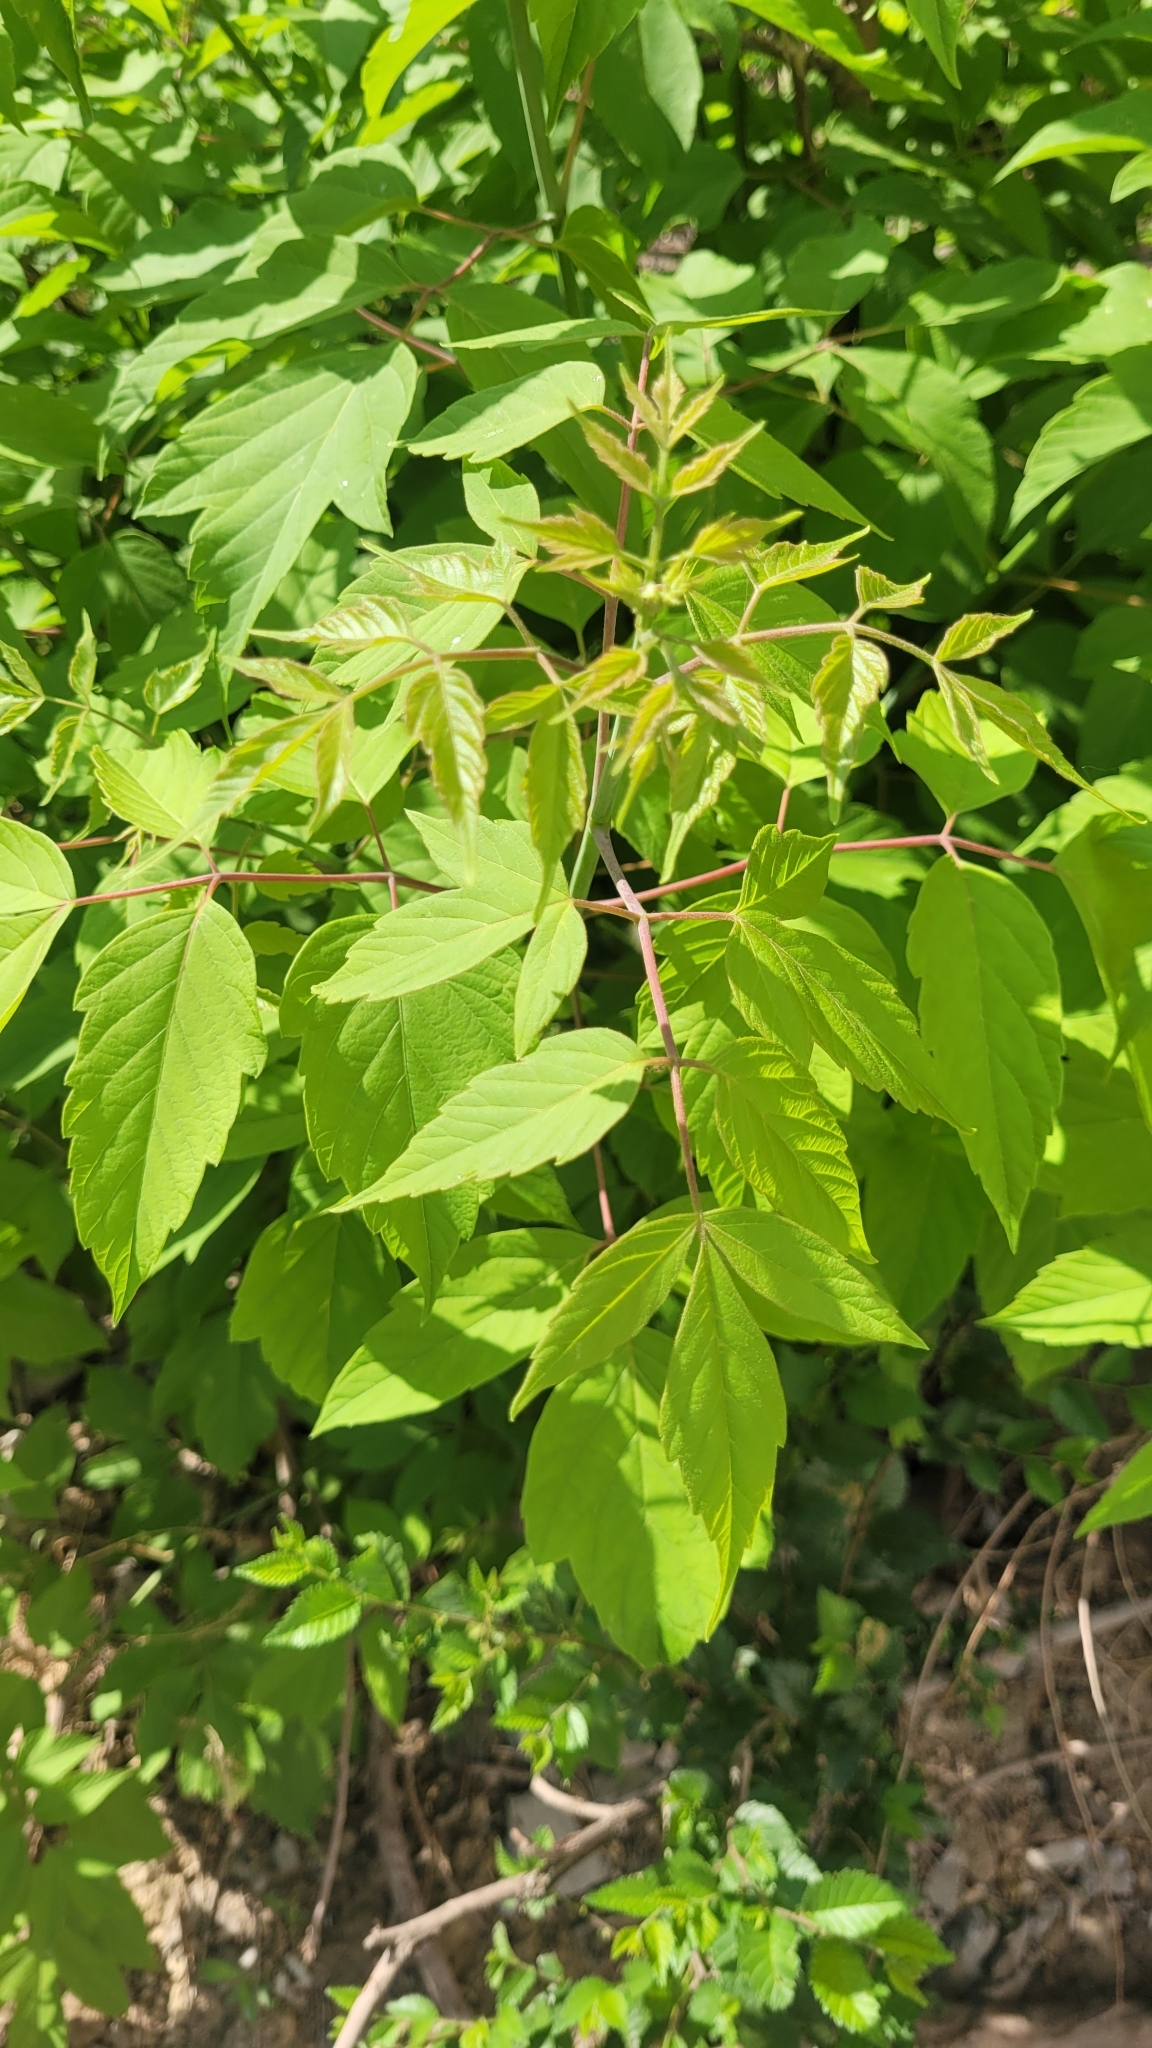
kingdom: Plantae
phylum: Tracheophyta
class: Magnoliopsida
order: Sapindales
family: Sapindaceae
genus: Acer
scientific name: Acer negundo
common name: Ashleaf maple
